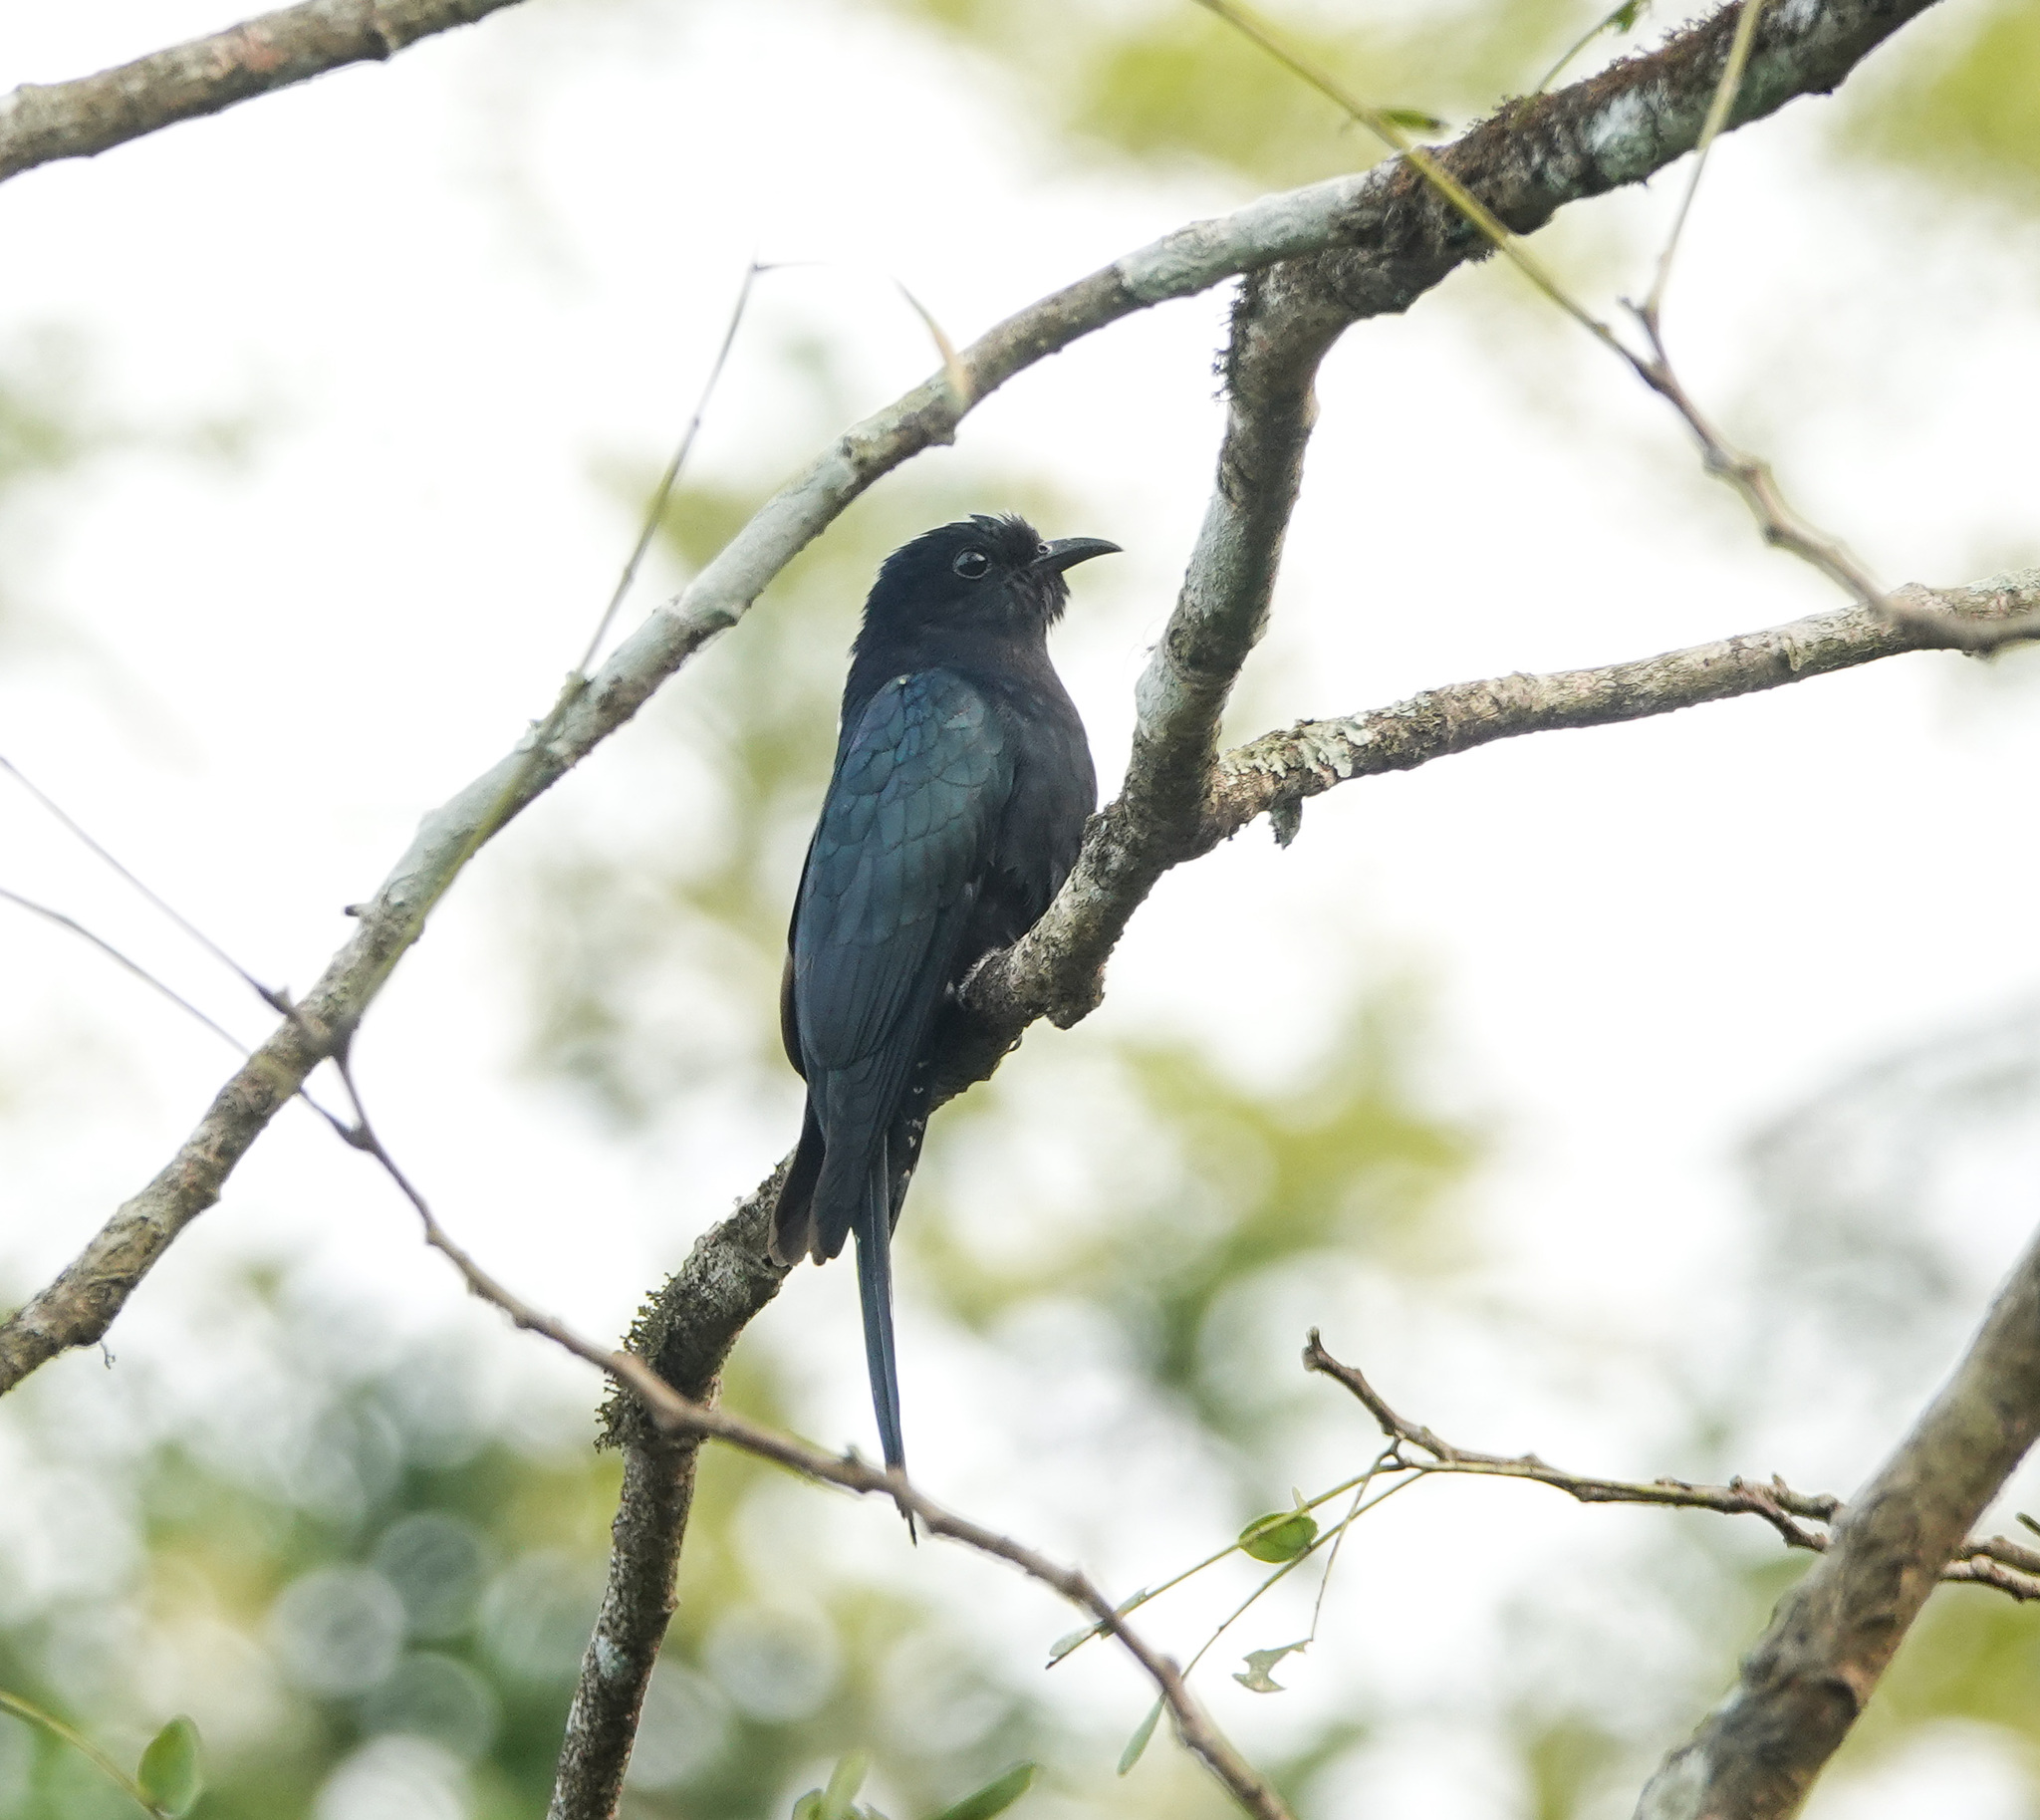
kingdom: Animalia
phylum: Chordata
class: Aves
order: Cuculiformes
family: Cuculidae
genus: Surniculus
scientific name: Surniculus lugubris
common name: Square-tailed drongo-cuckoo
